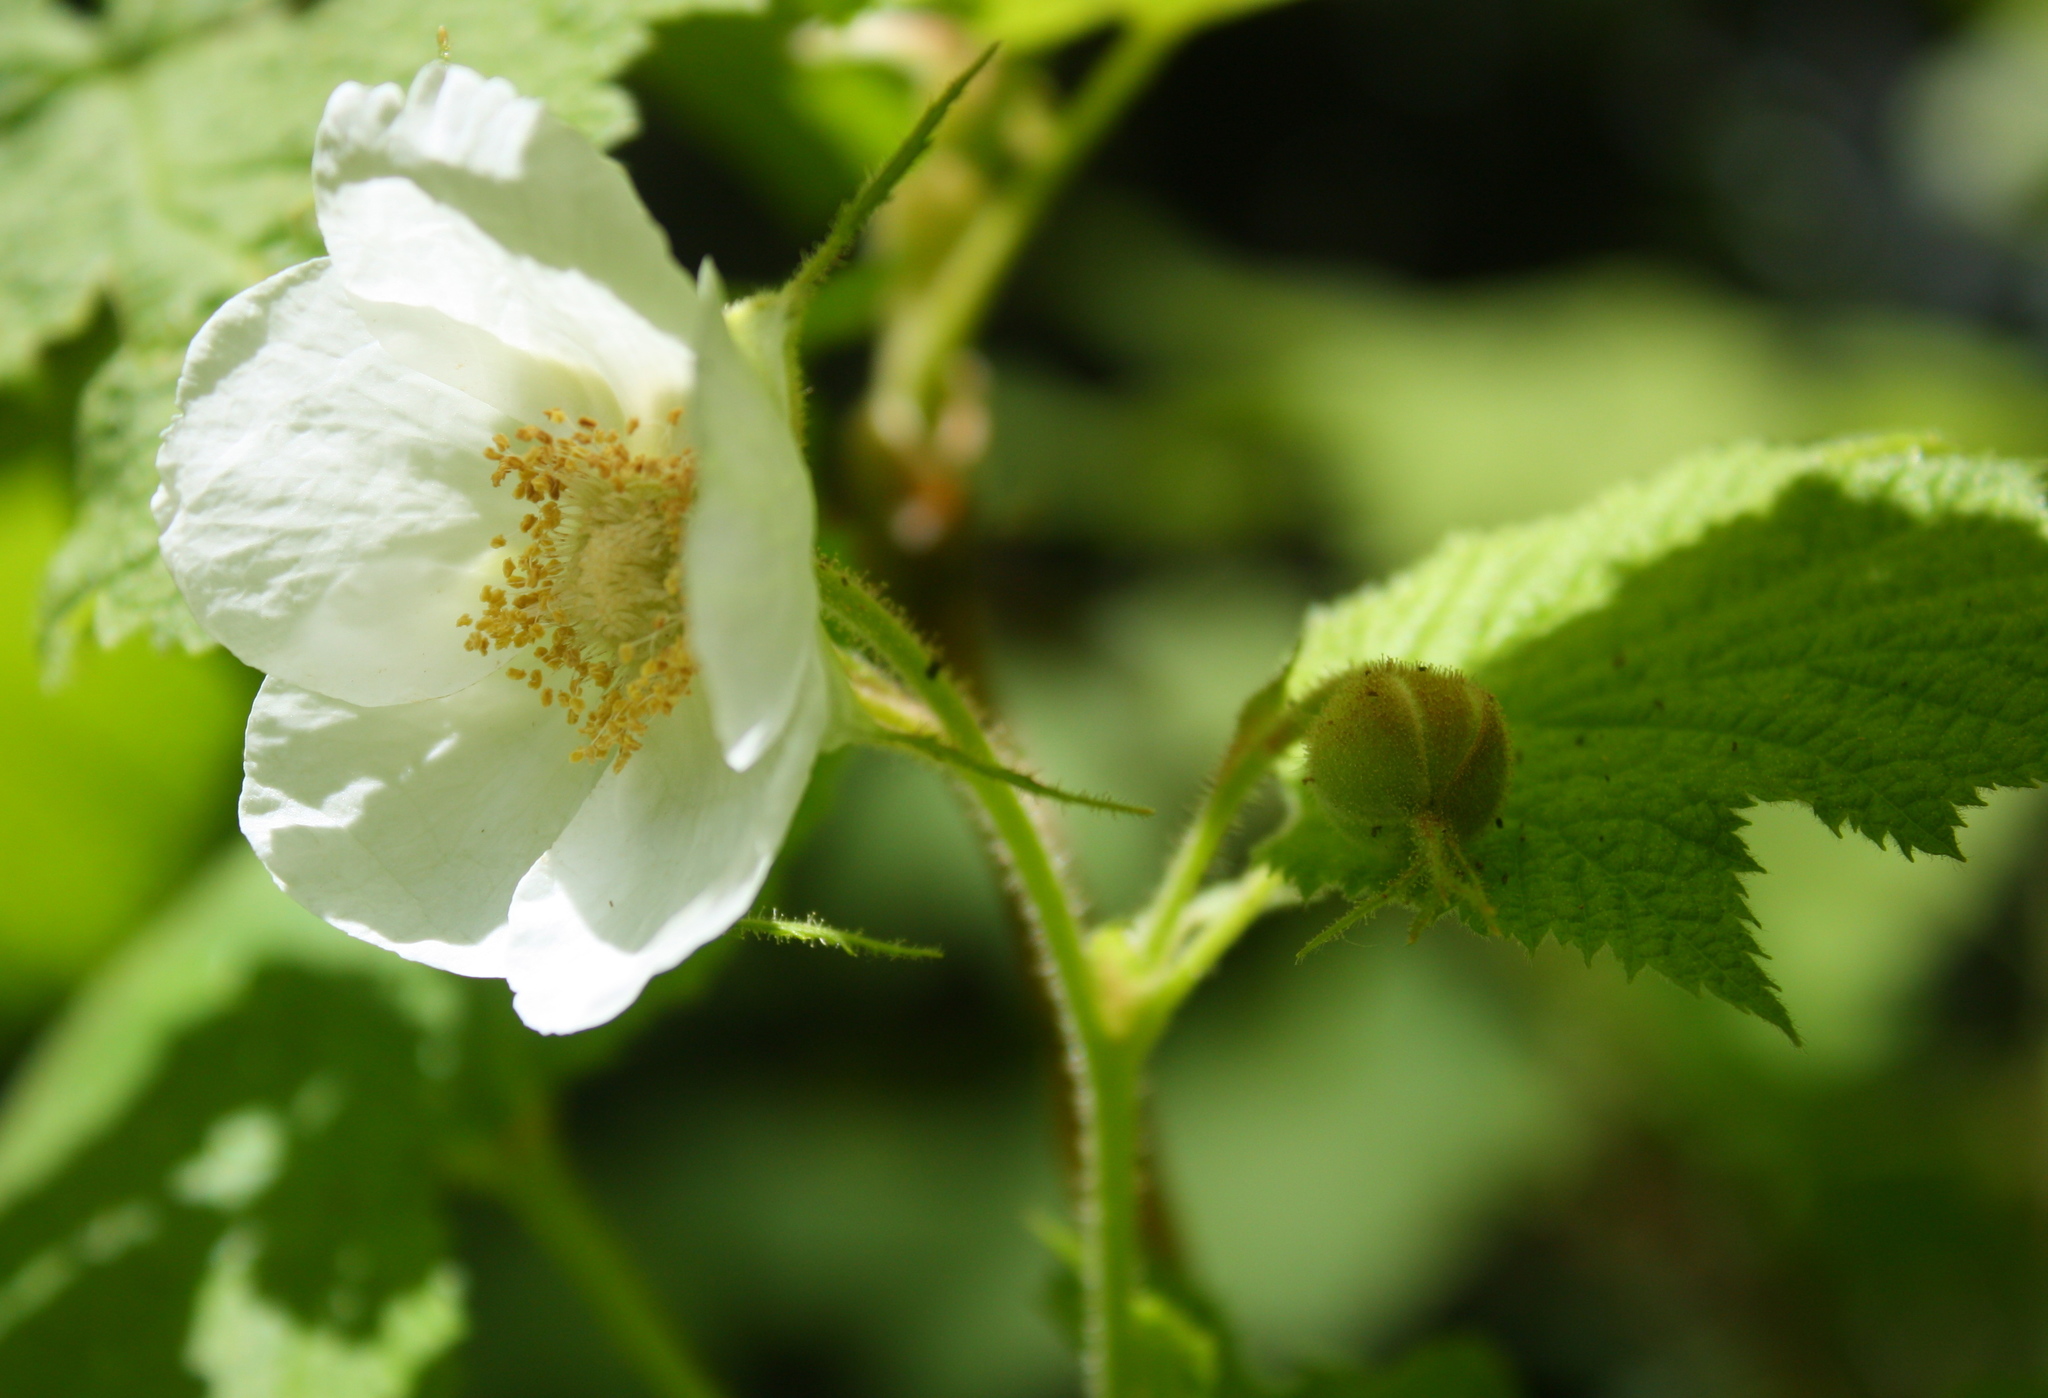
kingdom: Plantae
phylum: Tracheophyta
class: Magnoliopsida
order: Rosales
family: Rosaceae
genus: Rubus
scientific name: Rubus parviflorus
